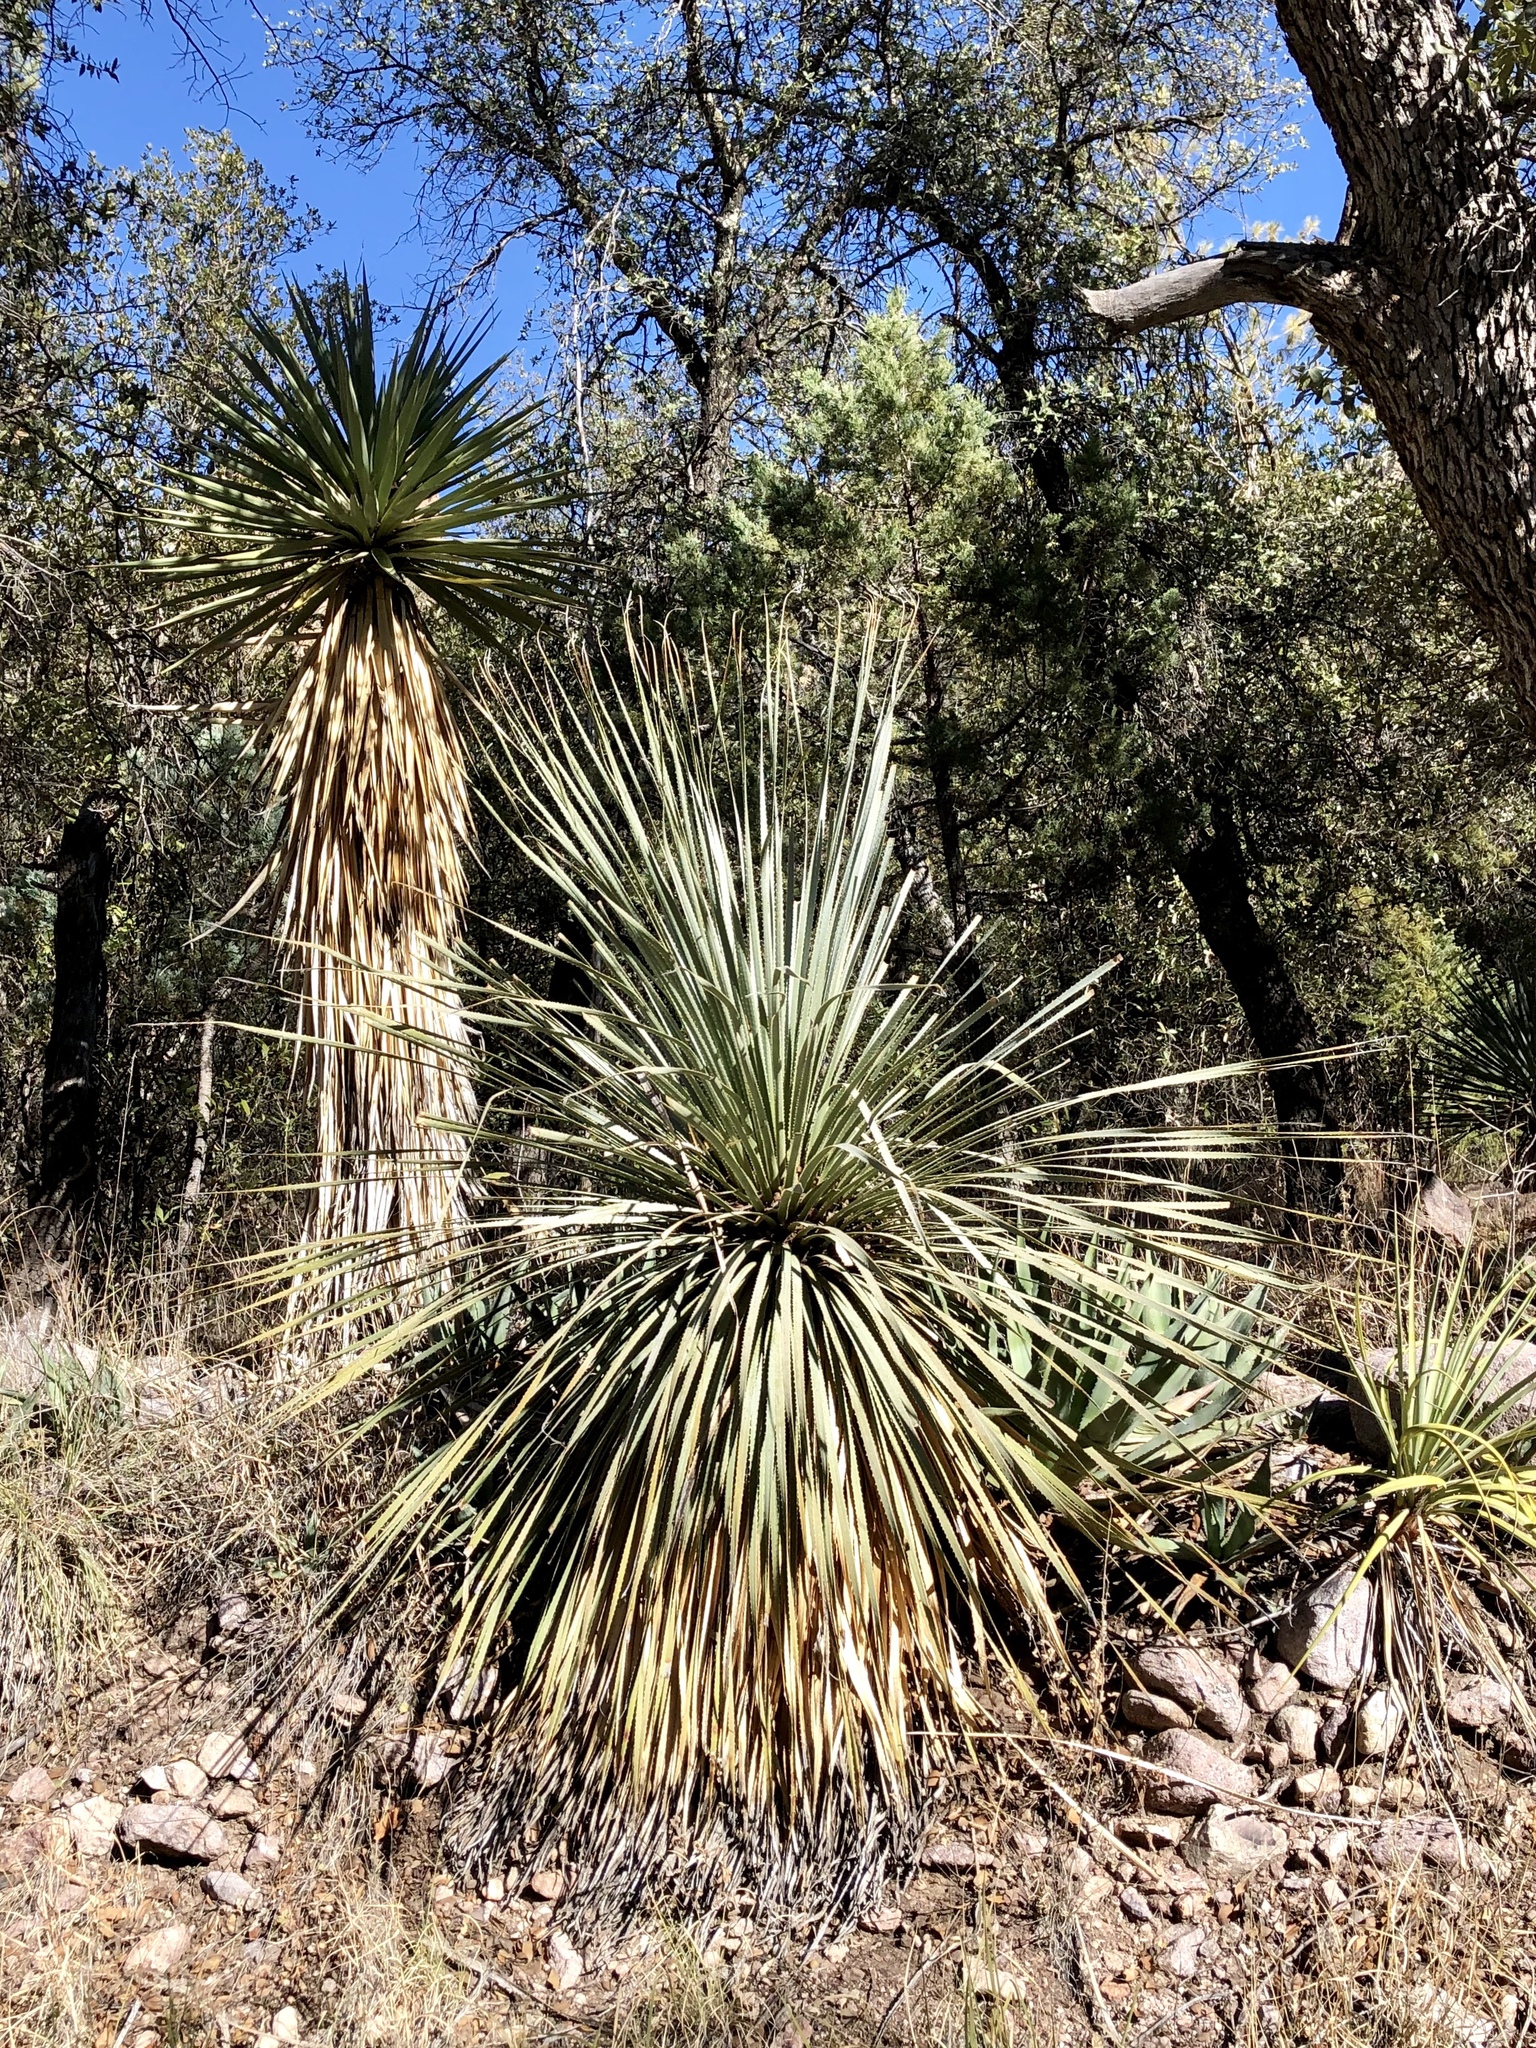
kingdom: Plantae
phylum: Tracheophyta
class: Liliopsida
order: Asparagales
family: Asparagaceae
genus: Dasylirion
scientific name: Dasylirion wheeleri
